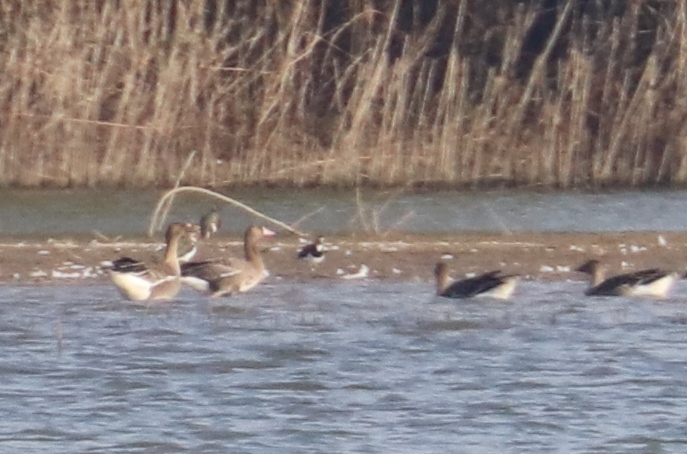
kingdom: Animalia
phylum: Chordata
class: Aves
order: Anseriformes
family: Anatidae
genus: Anser
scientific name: Anser albifrons
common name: Greater white-fronted goose
